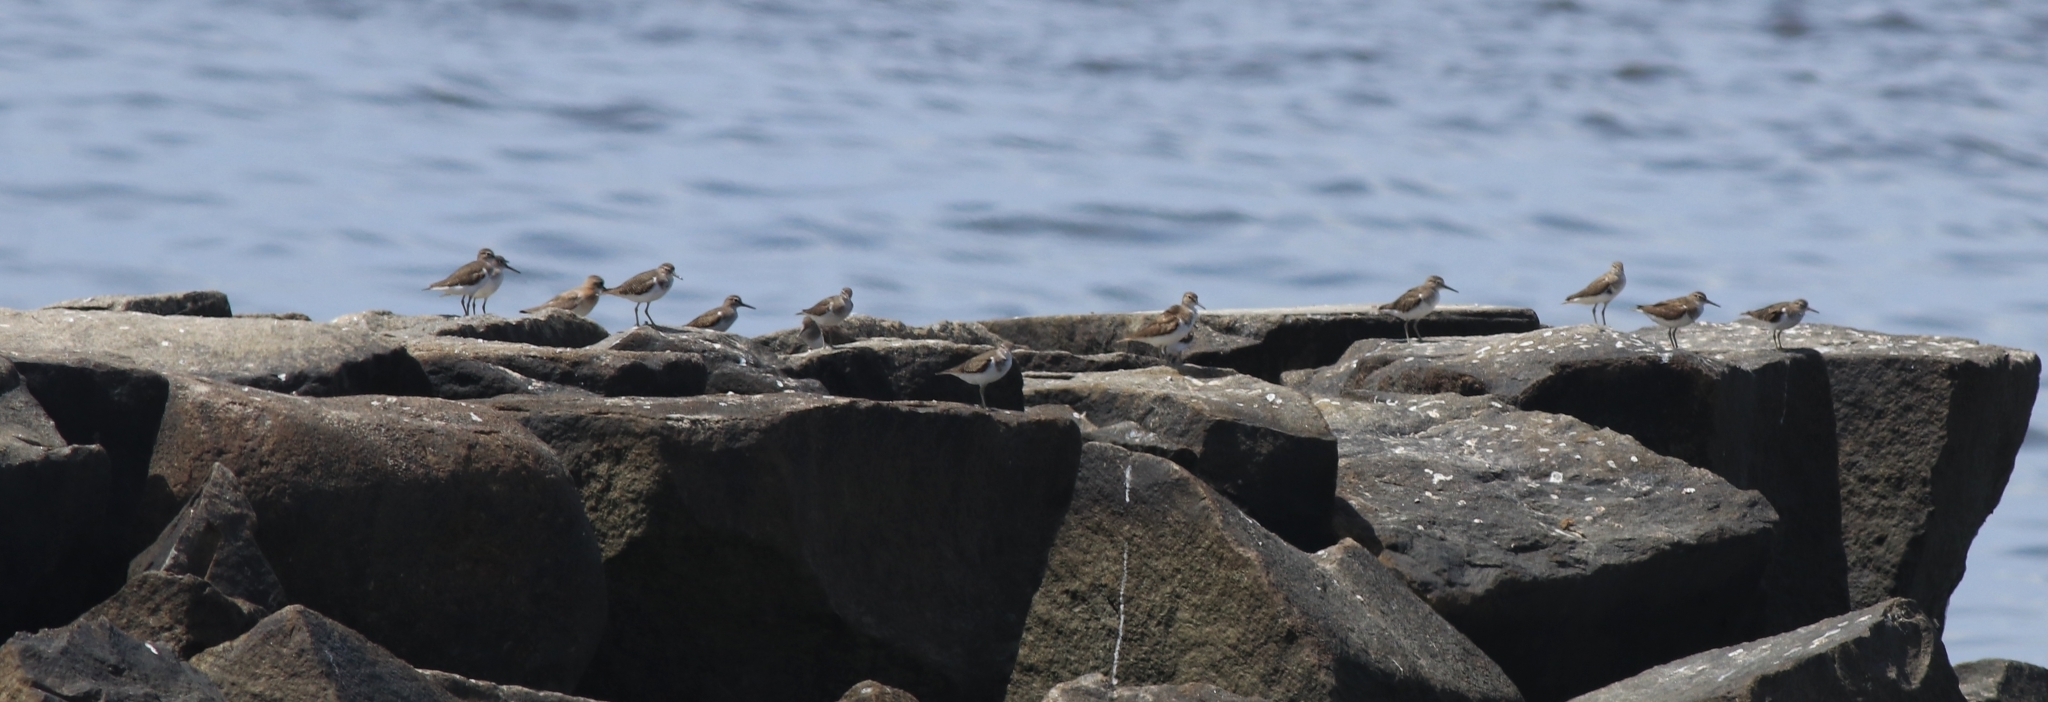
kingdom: Animalia
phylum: Chordata
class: Aves
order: Charadriiformes
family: Scolopacidae
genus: Actitis
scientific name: Actitis hypoleucos
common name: Common sandpiper
